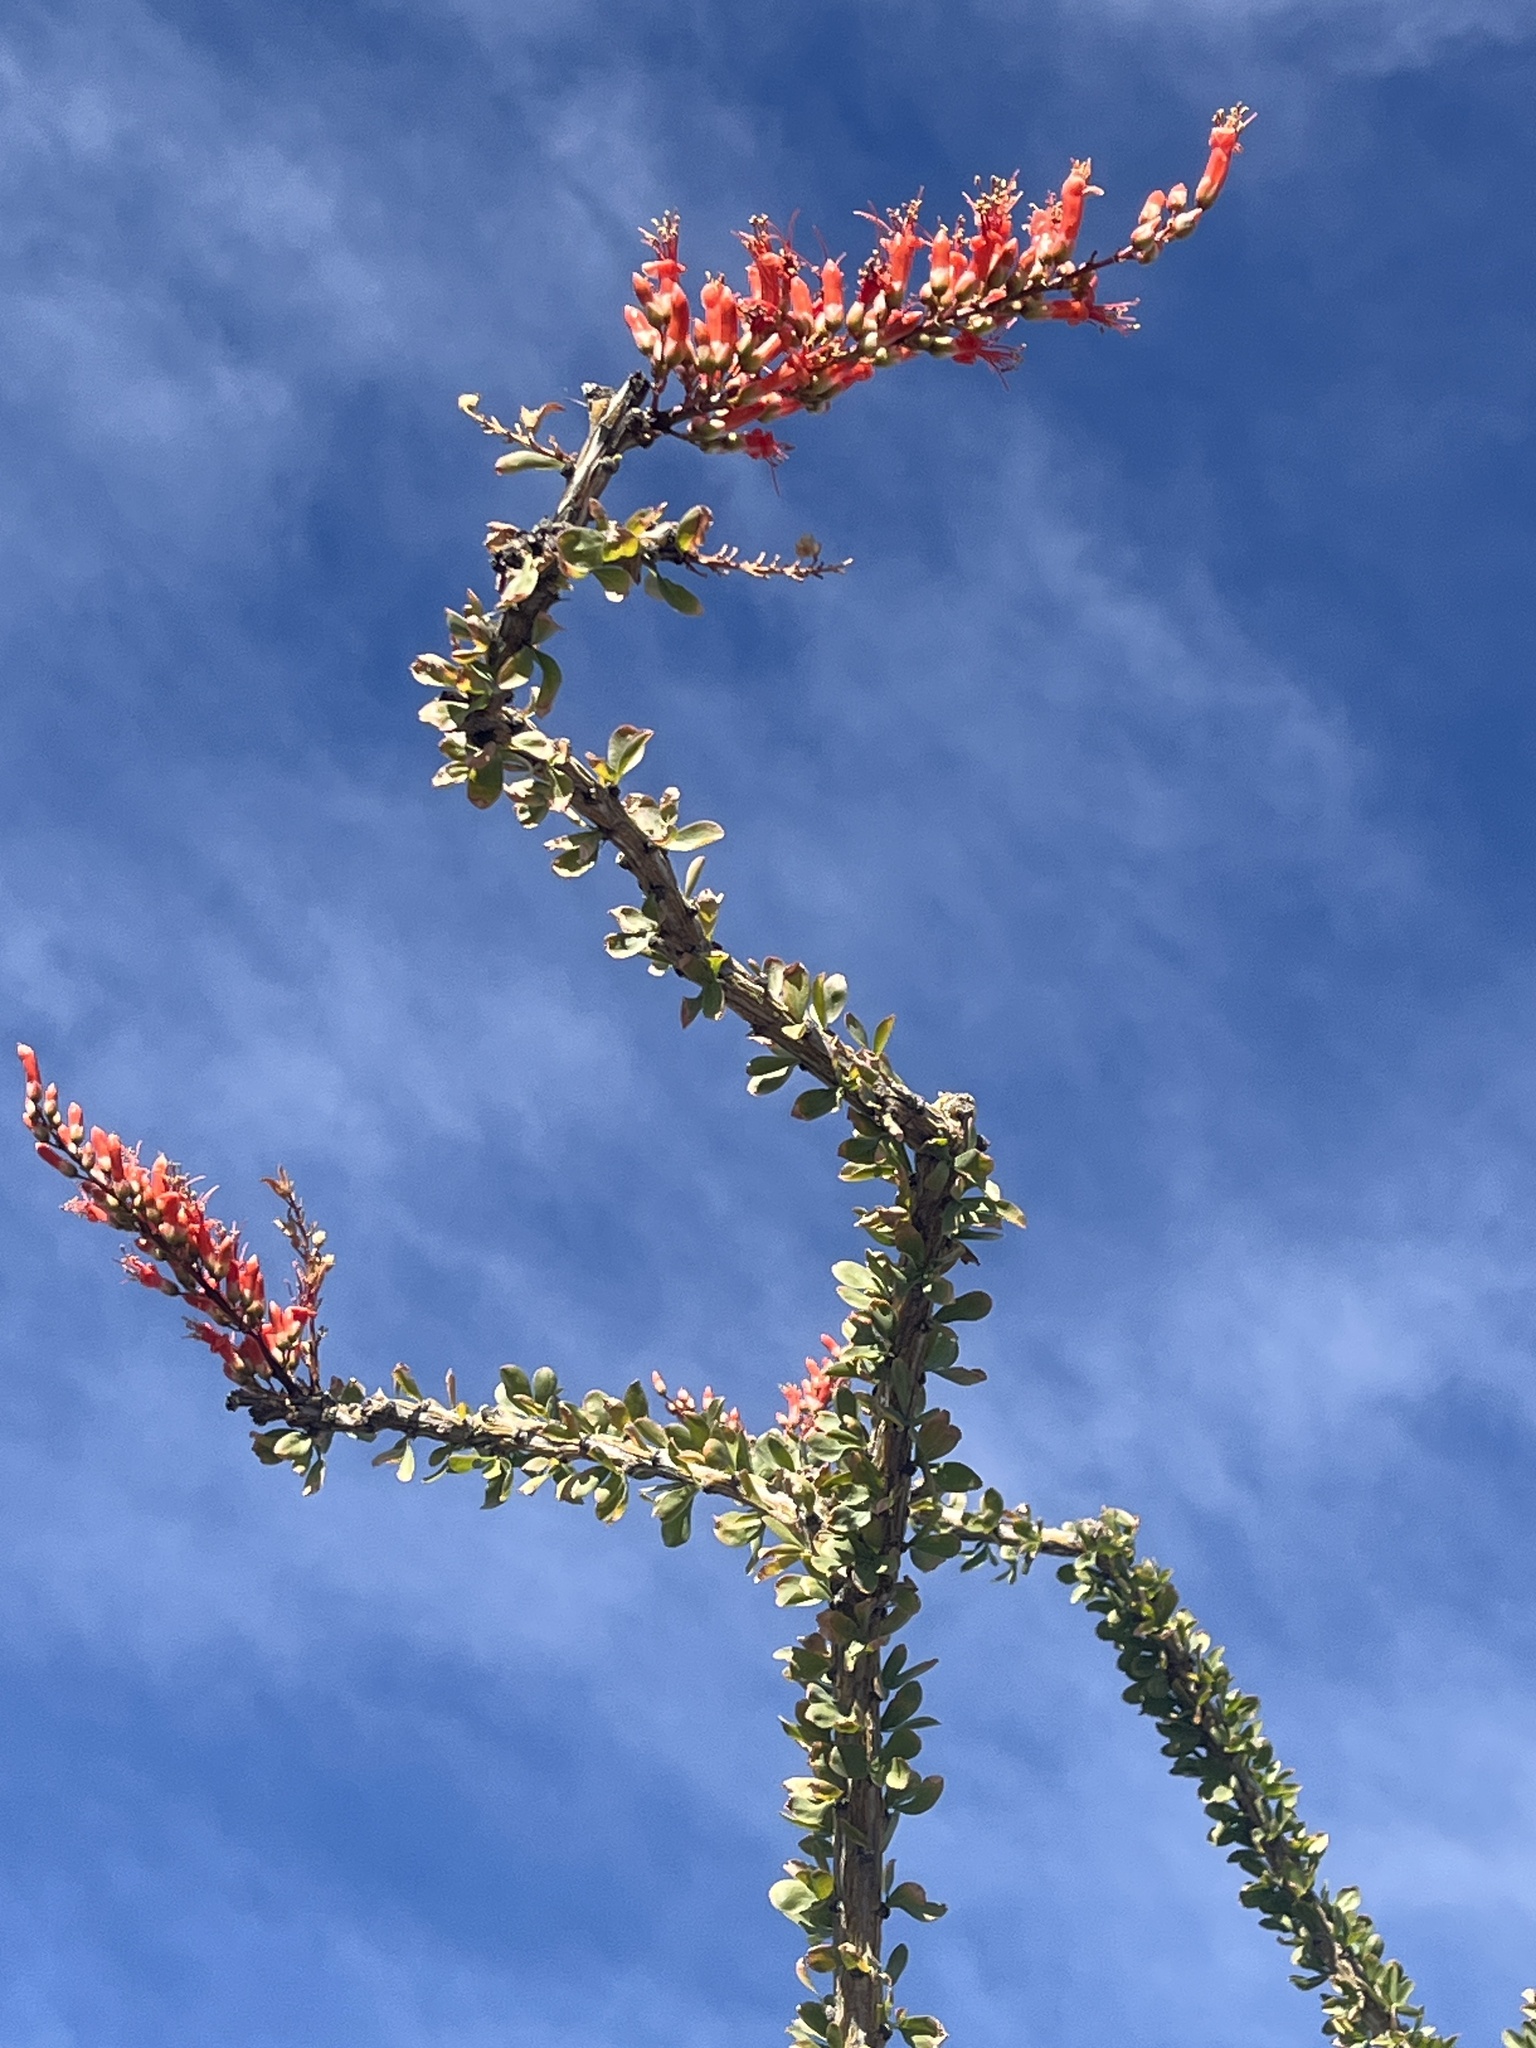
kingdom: Plantae
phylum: Tracheophyta
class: Magnoliopsida
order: Ericales
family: Fouquieriaceae
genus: Fouquieria
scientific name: Fouquieria splendens
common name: Vine-cactus
